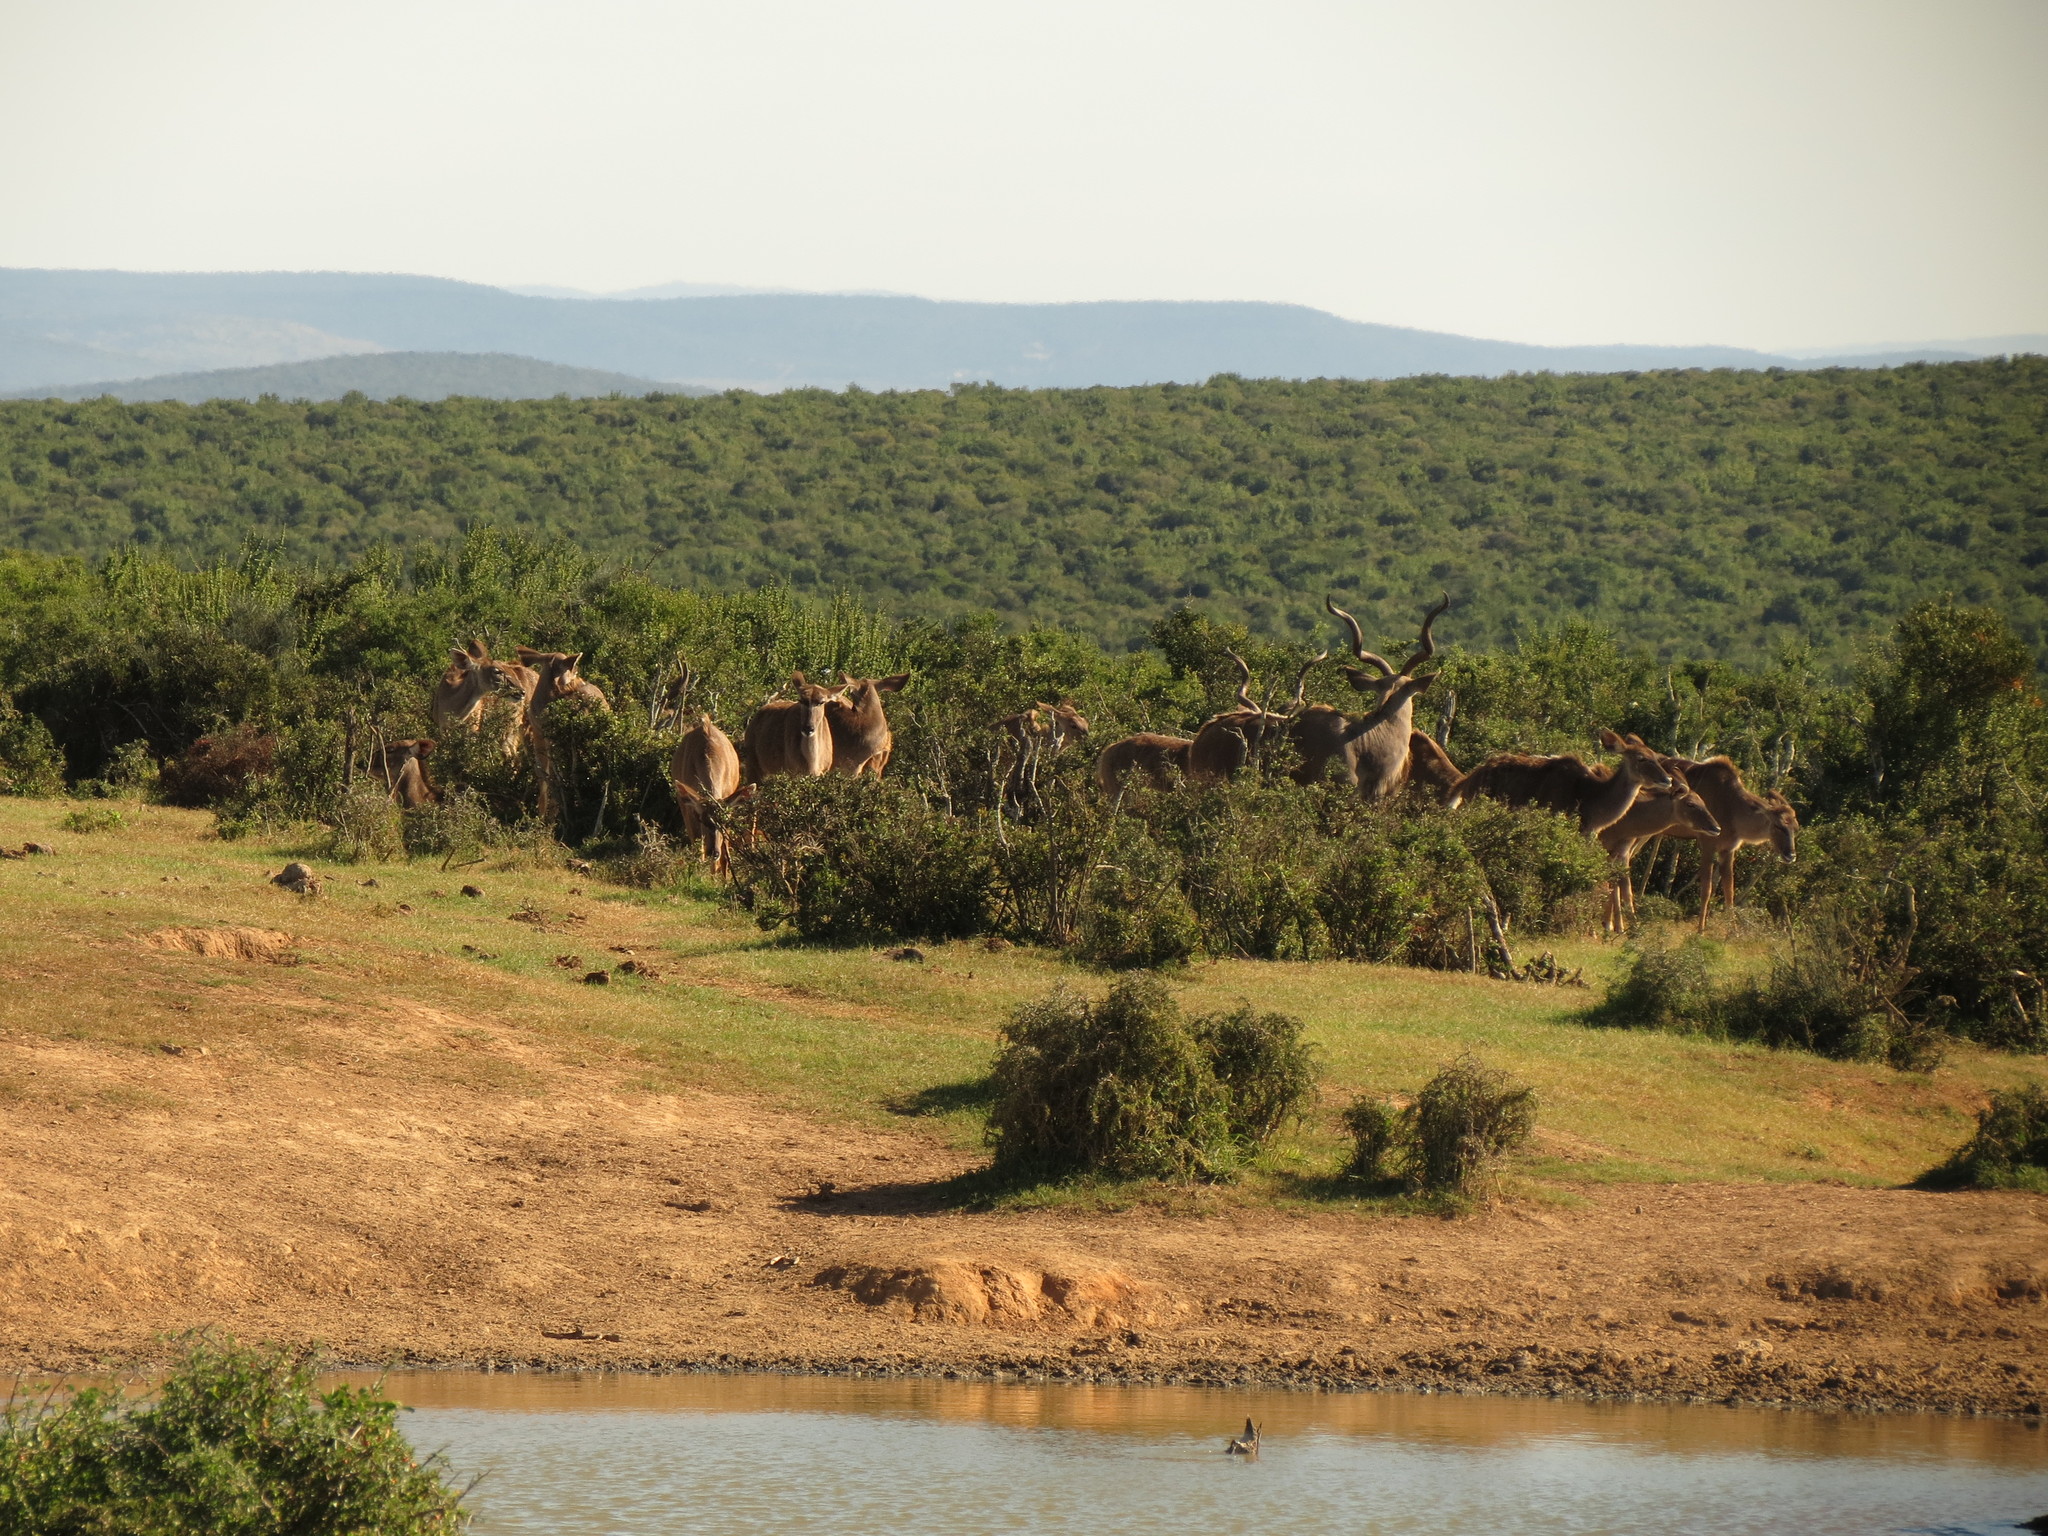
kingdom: Animalia
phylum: Chordata
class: Mammalia
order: Artiodactyla
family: Bovidae
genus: Tragelaphus
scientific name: Tragelaphus strepsiceros
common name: Greater kudu
